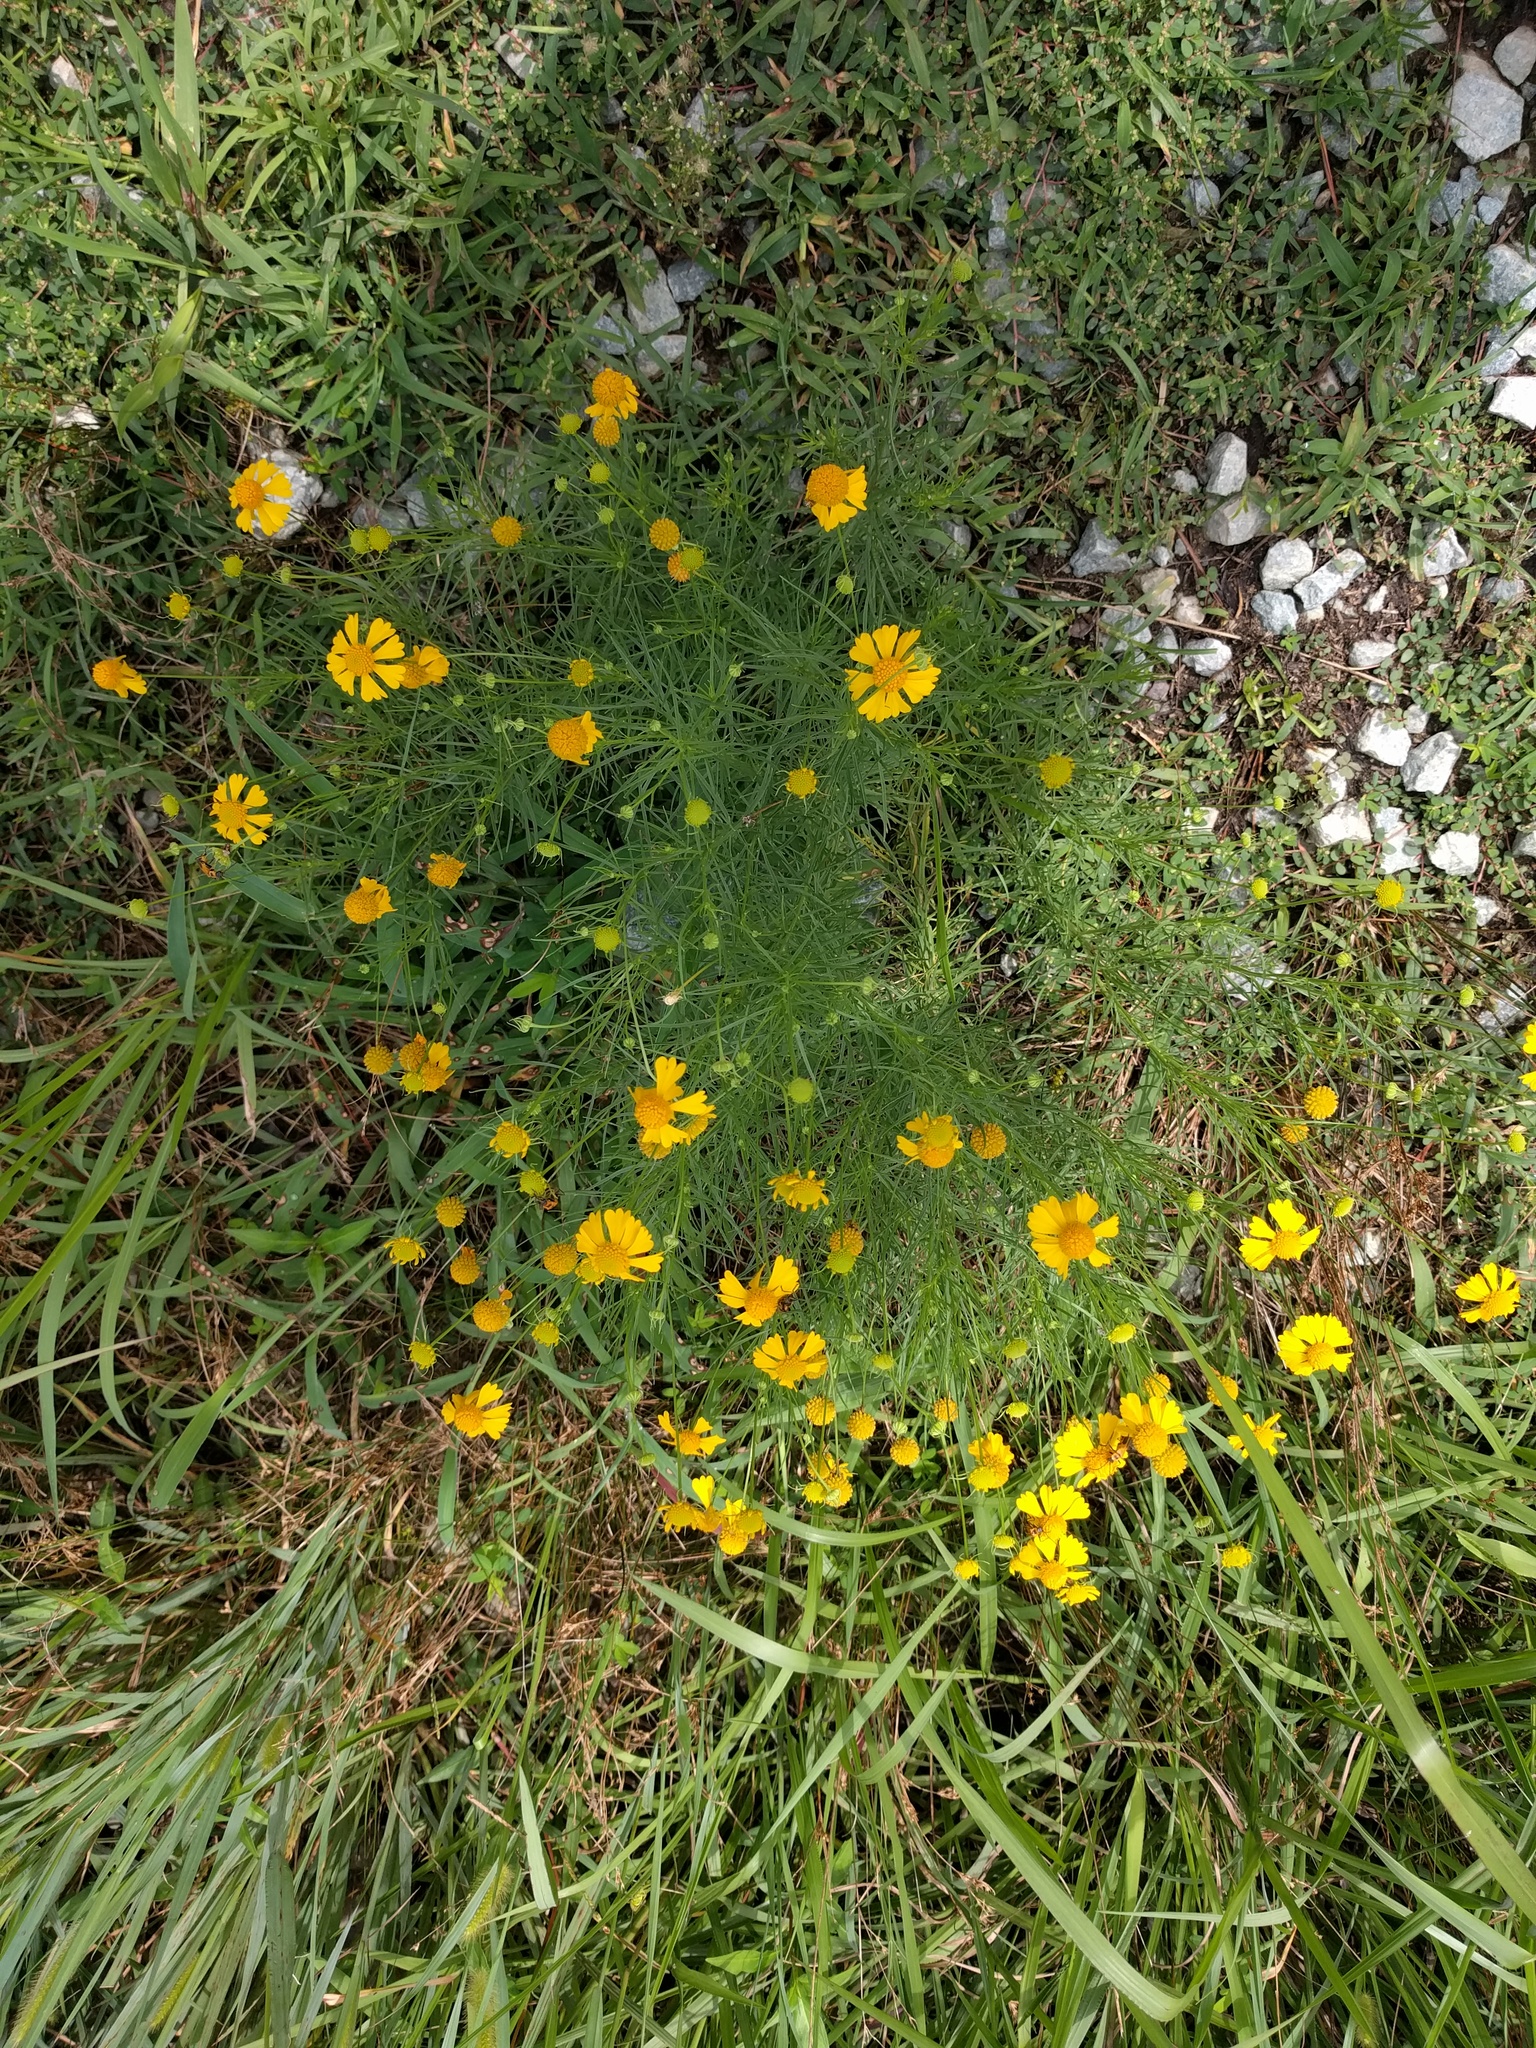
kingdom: Plantae
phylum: Tracheophyta
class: Magnoliopsida
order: Asterales
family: Asteraceae
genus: Helenium
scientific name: Helenium amarum
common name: Bitter sneezeweed
